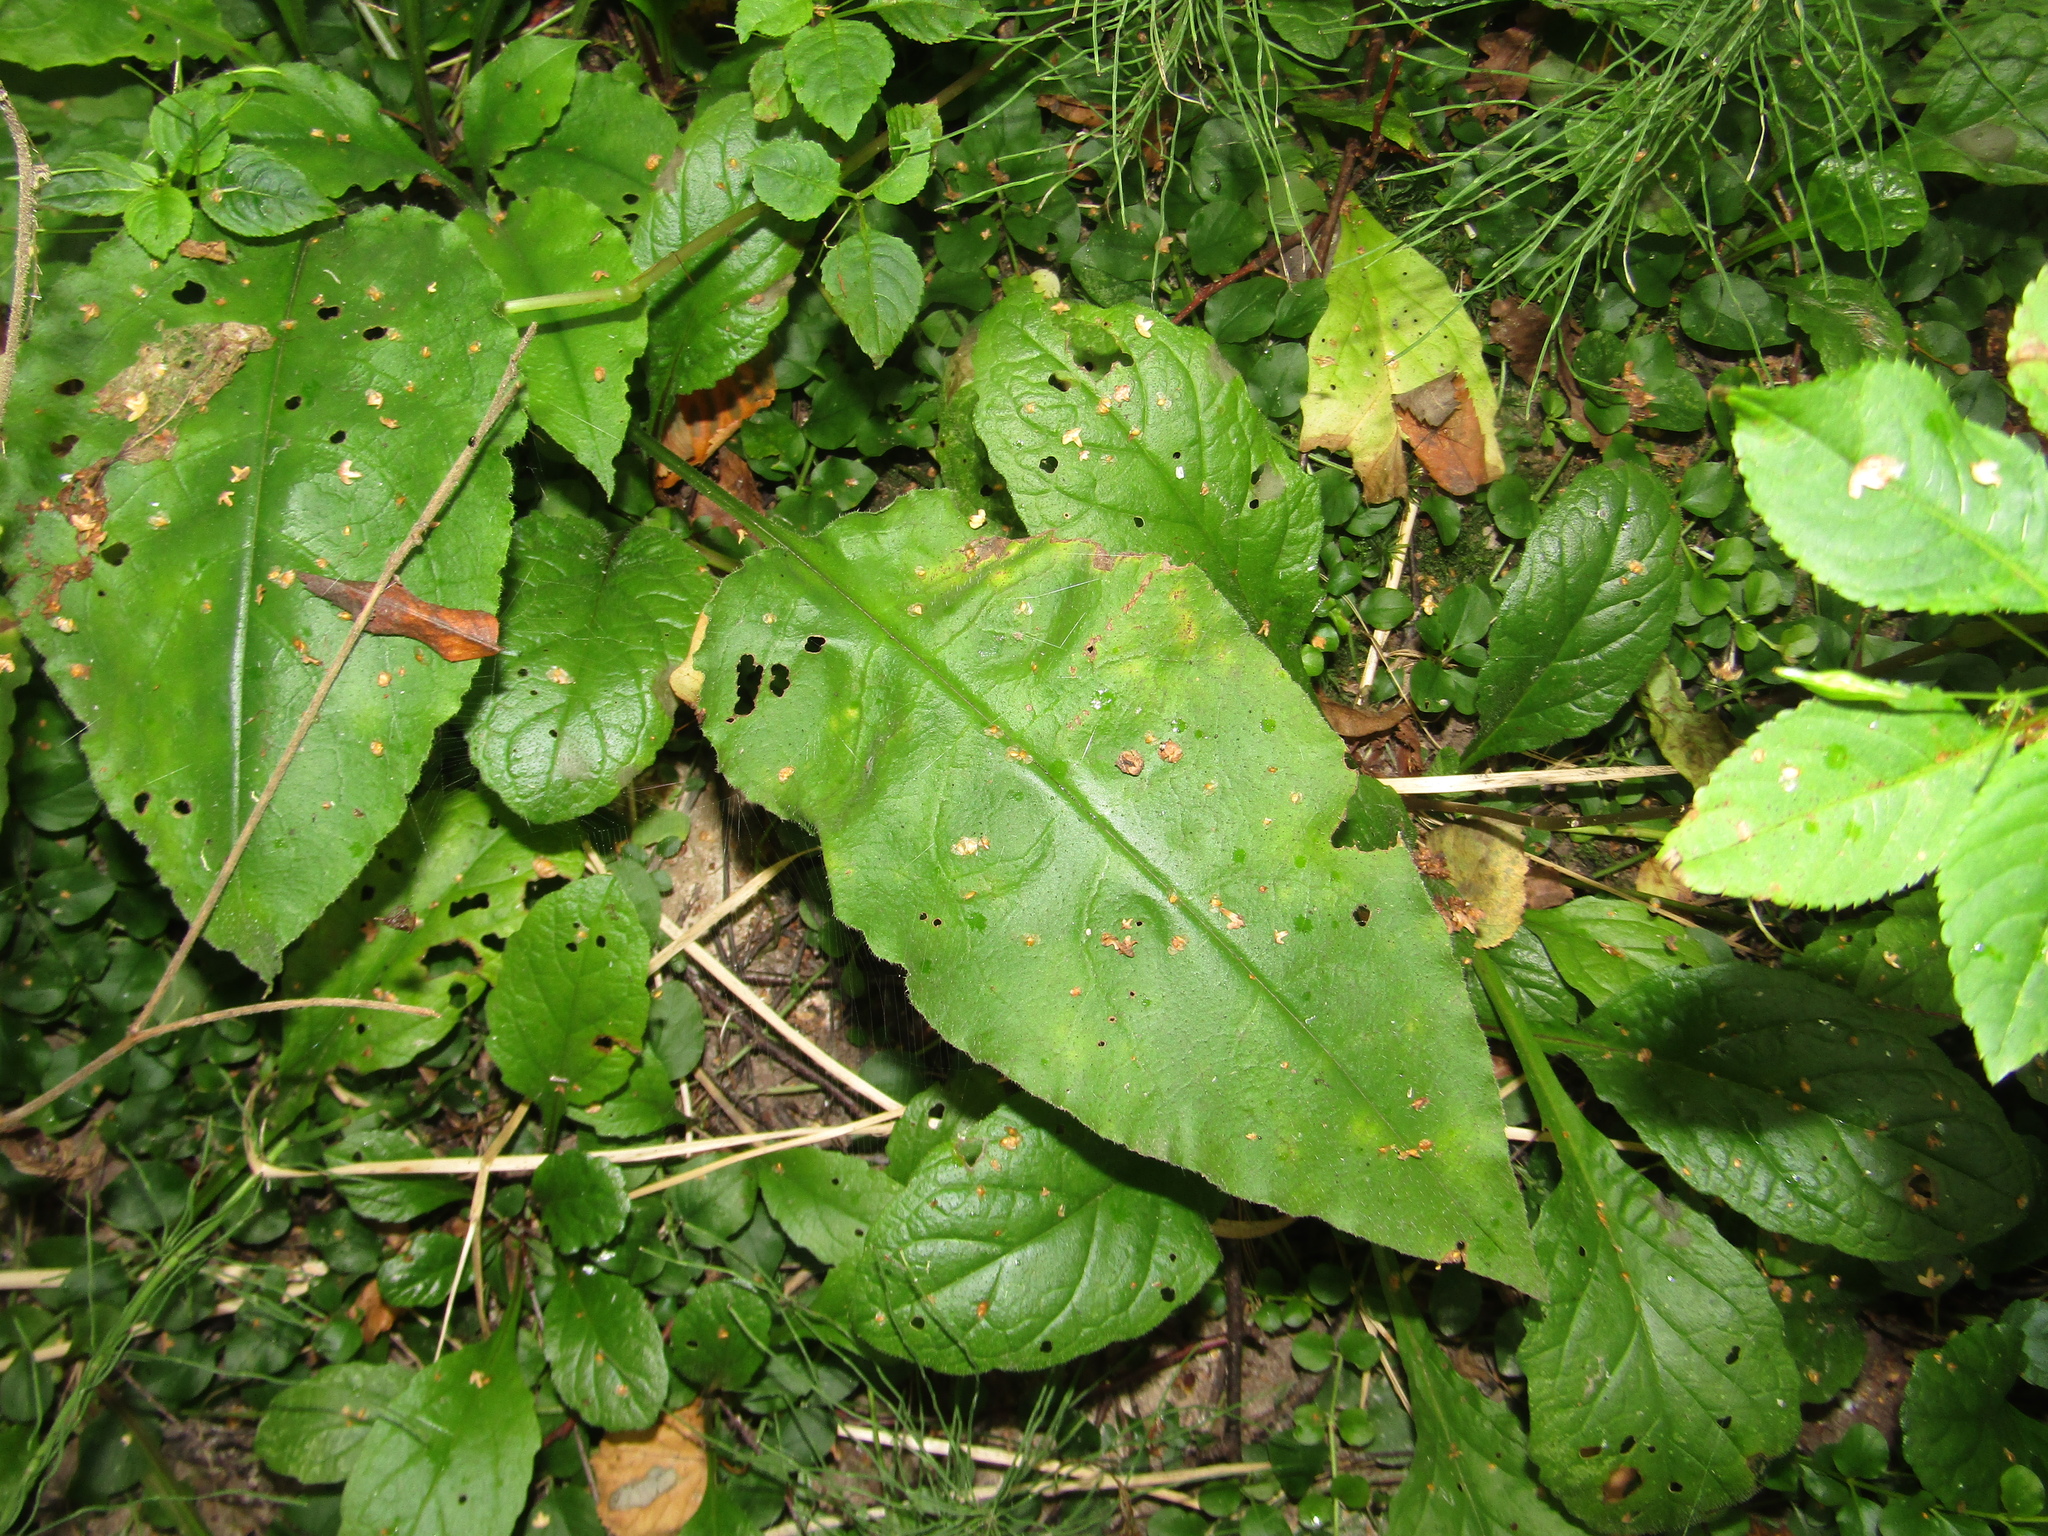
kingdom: Plantae
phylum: Tracheophyta
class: Magnoliopsida
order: Boraginales
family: Boraginaceae
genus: Pulmonaria
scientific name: Pulmonaria obscura
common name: Suffolk lungwort
